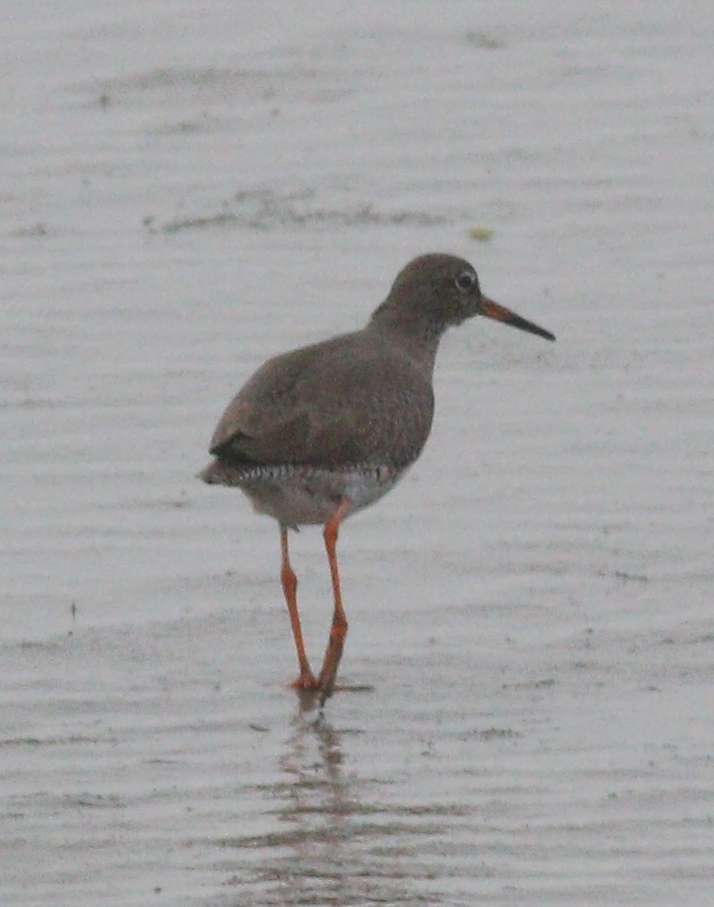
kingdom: Animalia
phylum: Chordata
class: Aves
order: Charadriiformes
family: Scolopacidae
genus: Tringa
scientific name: Tringa totanus
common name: Common redshank
